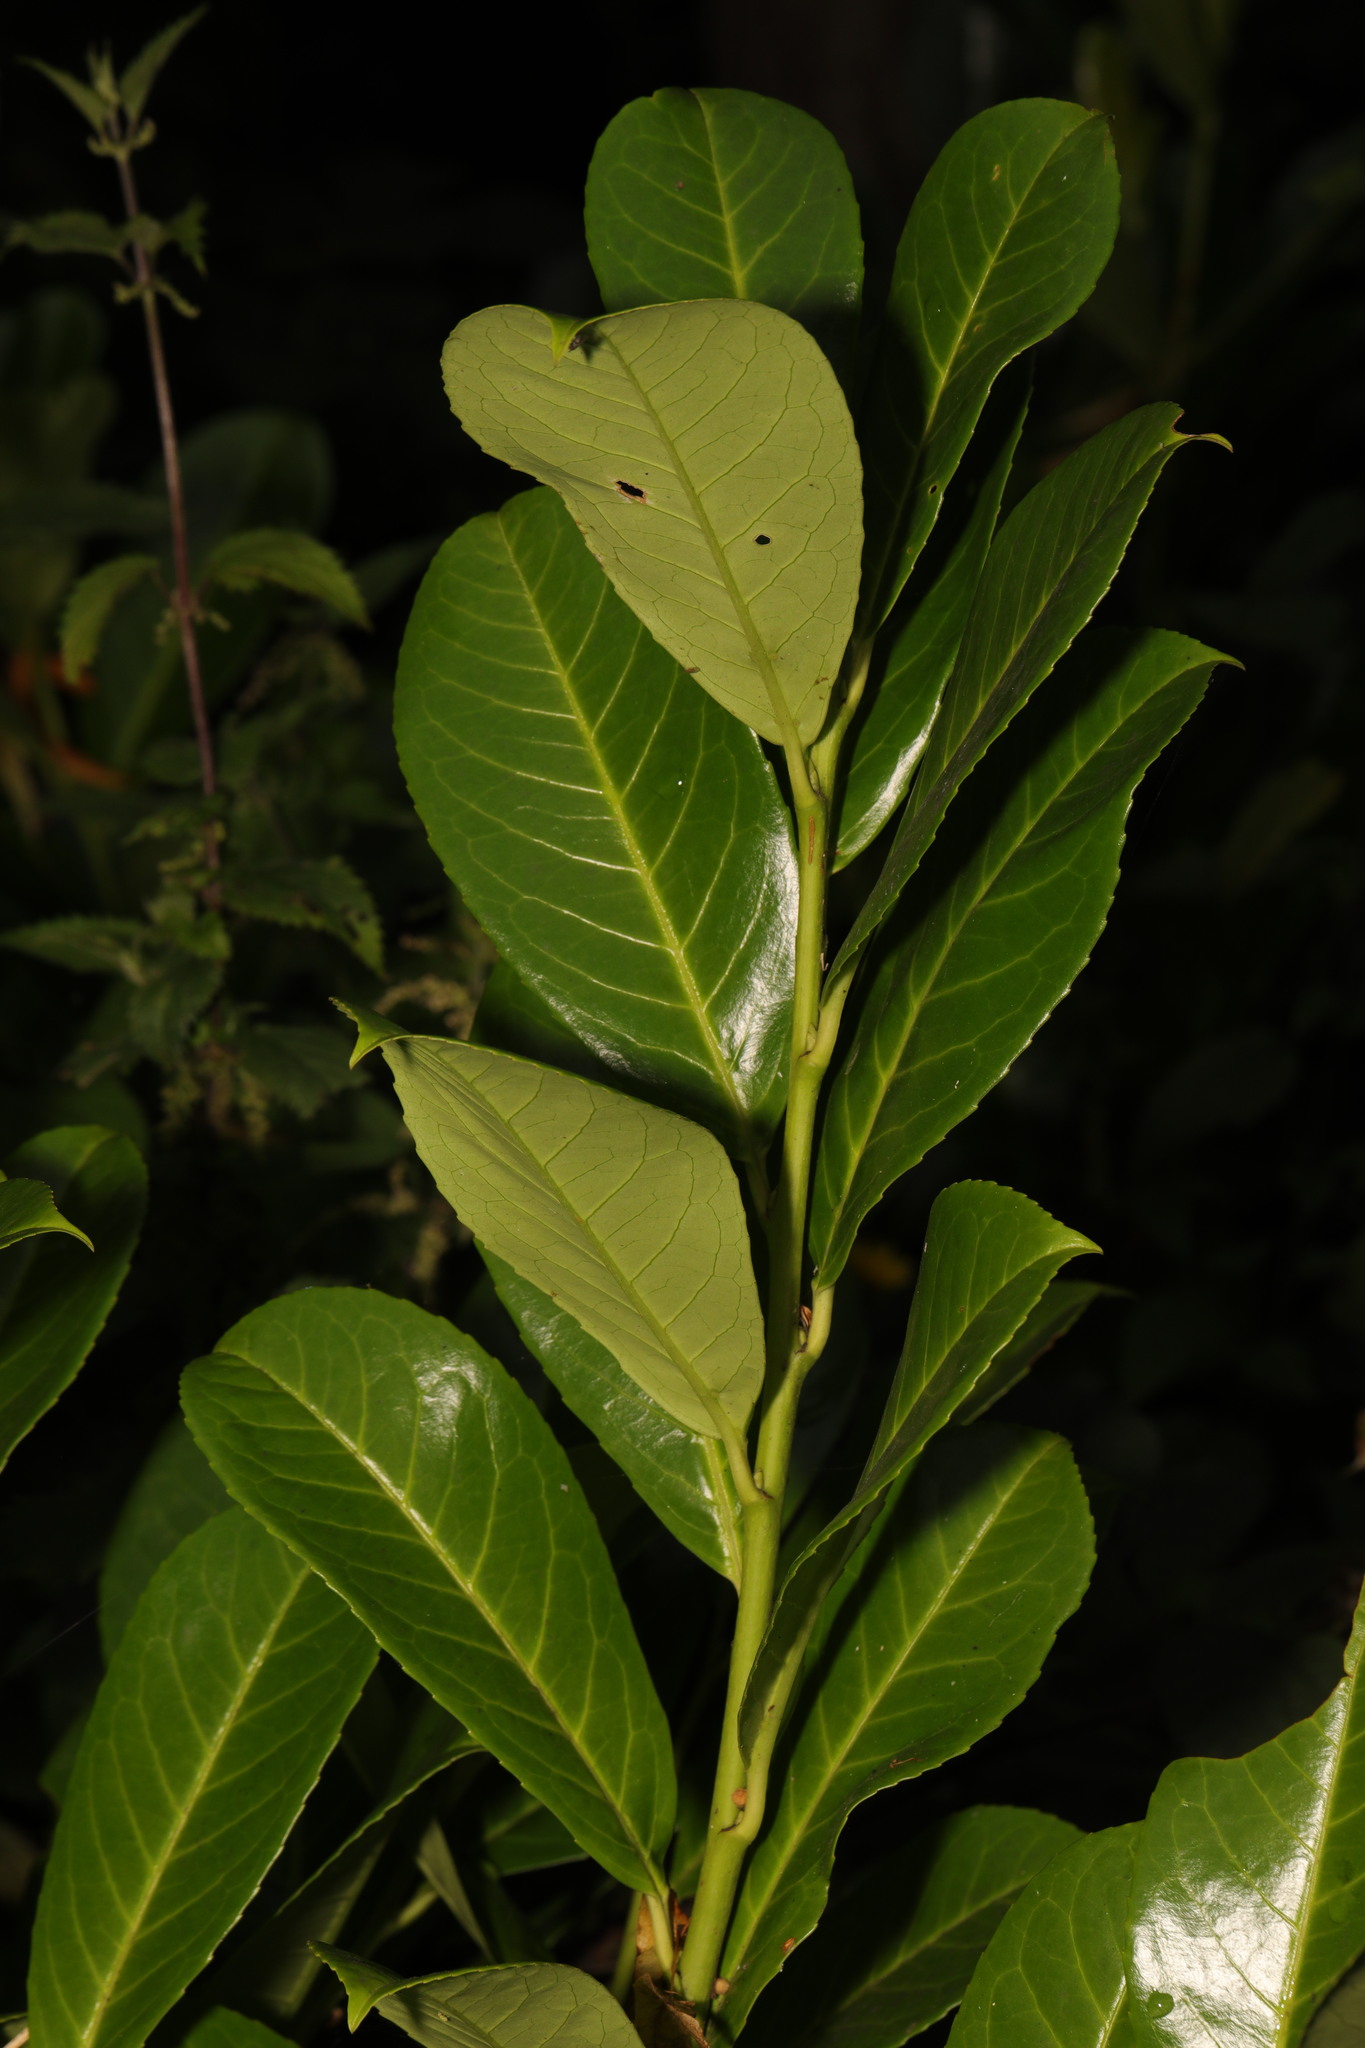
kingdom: Plantae
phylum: Tracheophyta
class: Magnoliopsida
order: Rosales
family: Rosaceae
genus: Prunus
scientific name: Prunus laurocerasus
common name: Cherry laurel
